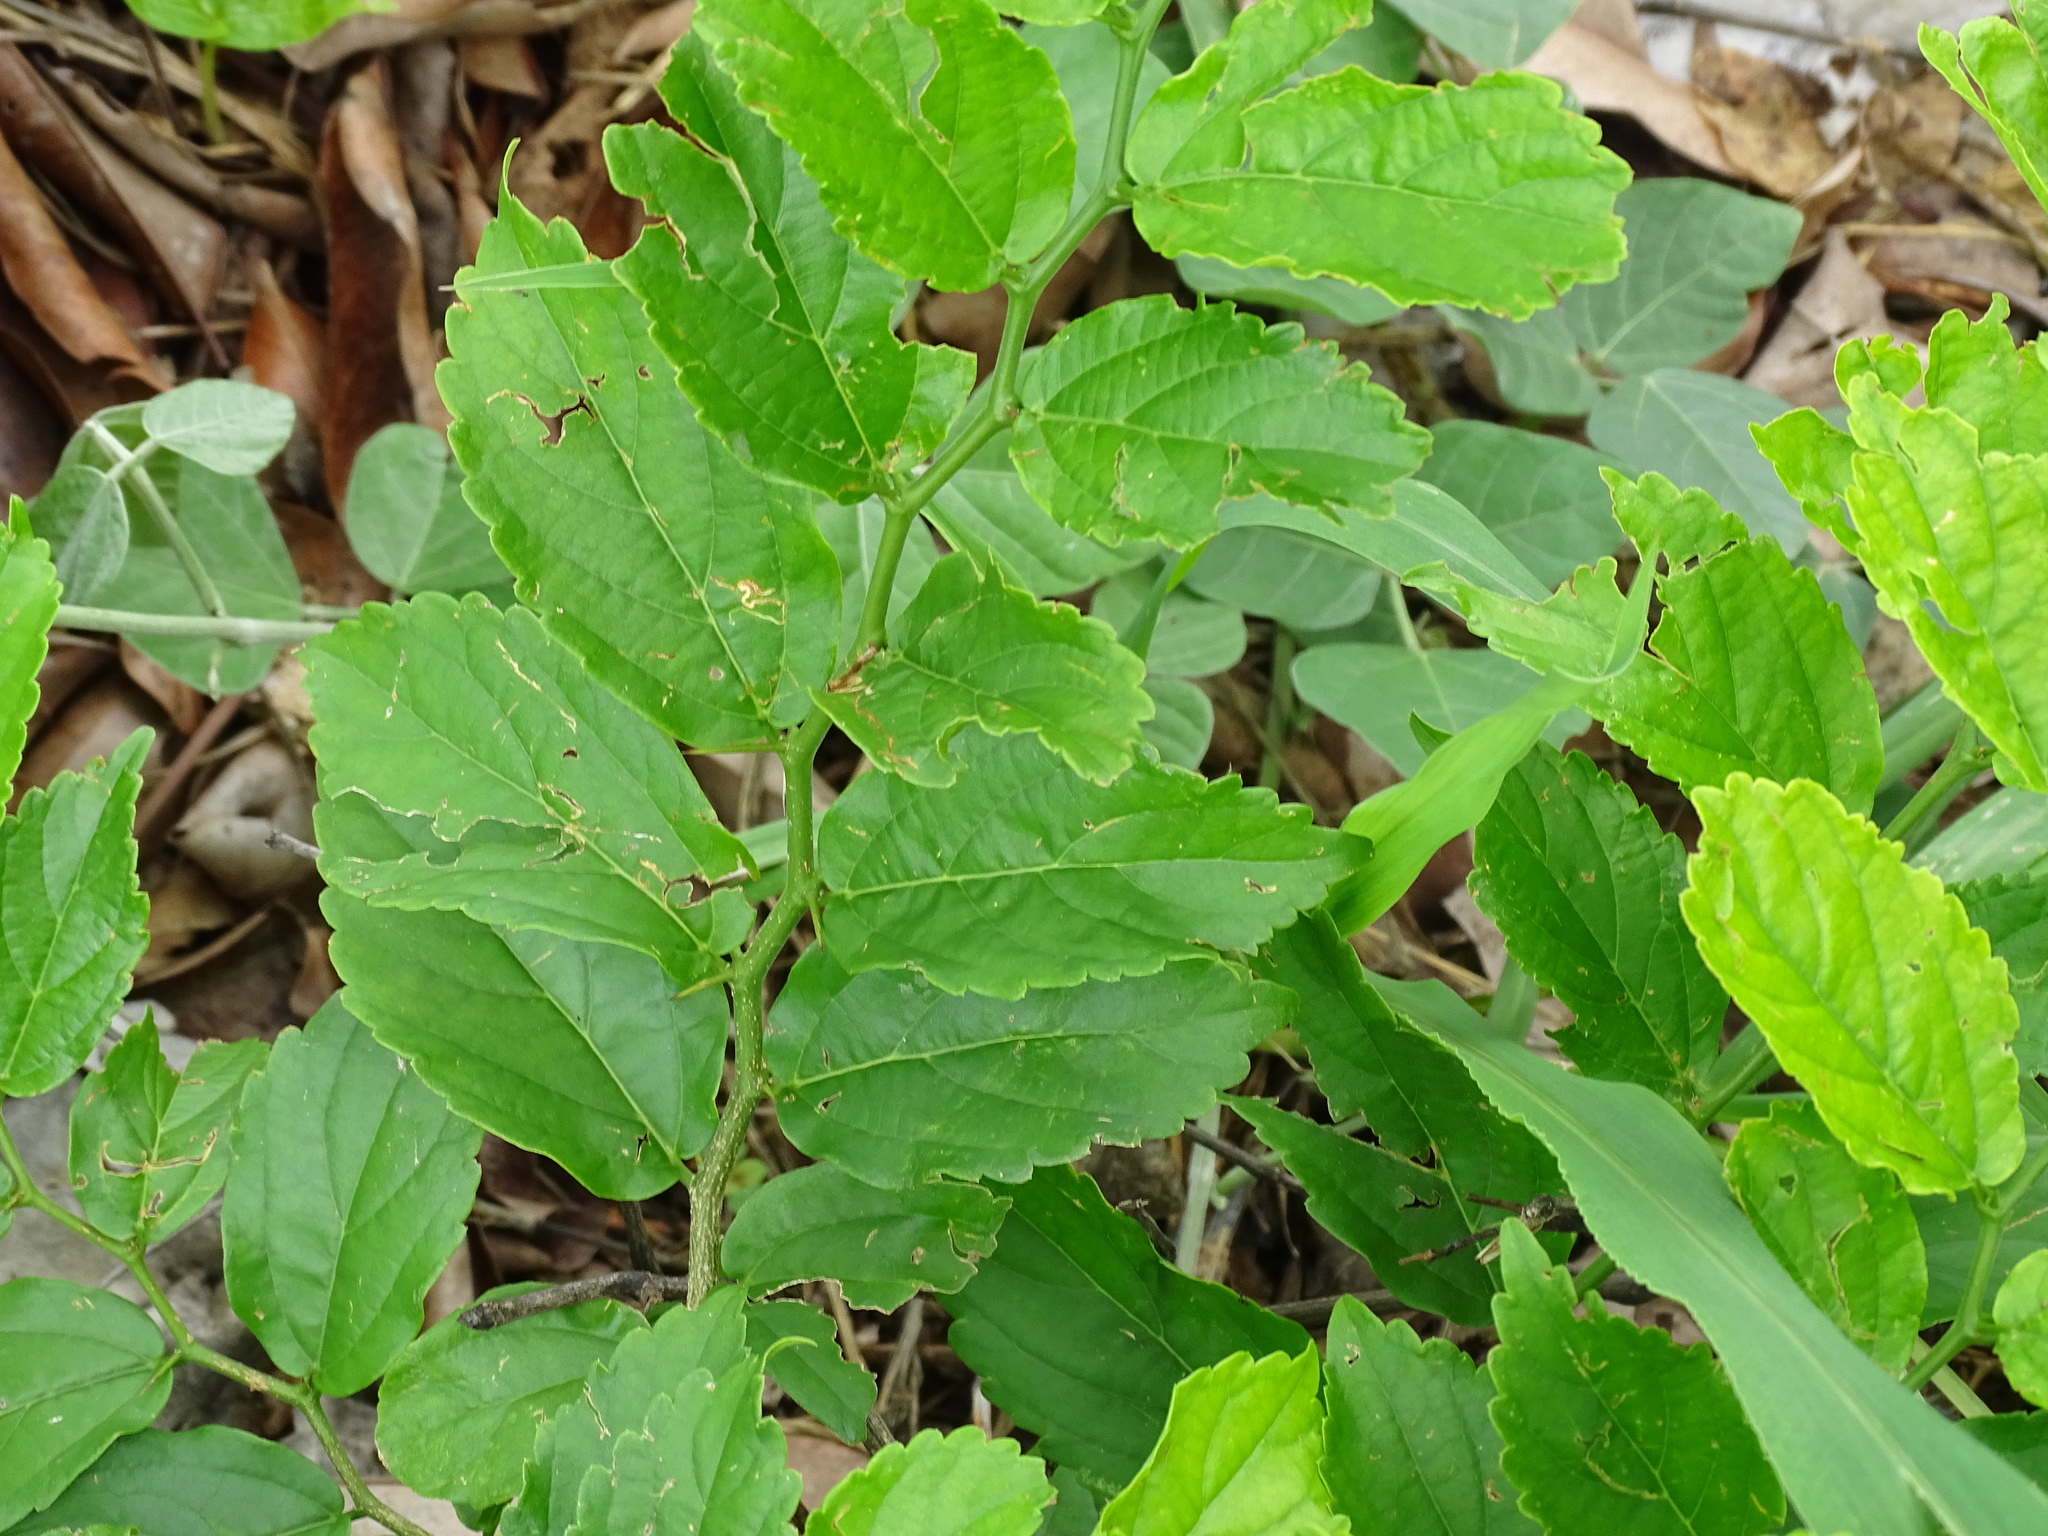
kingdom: Plantae
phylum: Tracheophyta
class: Magnoliopsida
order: Rosales
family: Cannabaceae
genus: Celtis
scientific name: Celtis iguanaea
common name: Iguana hackberry
